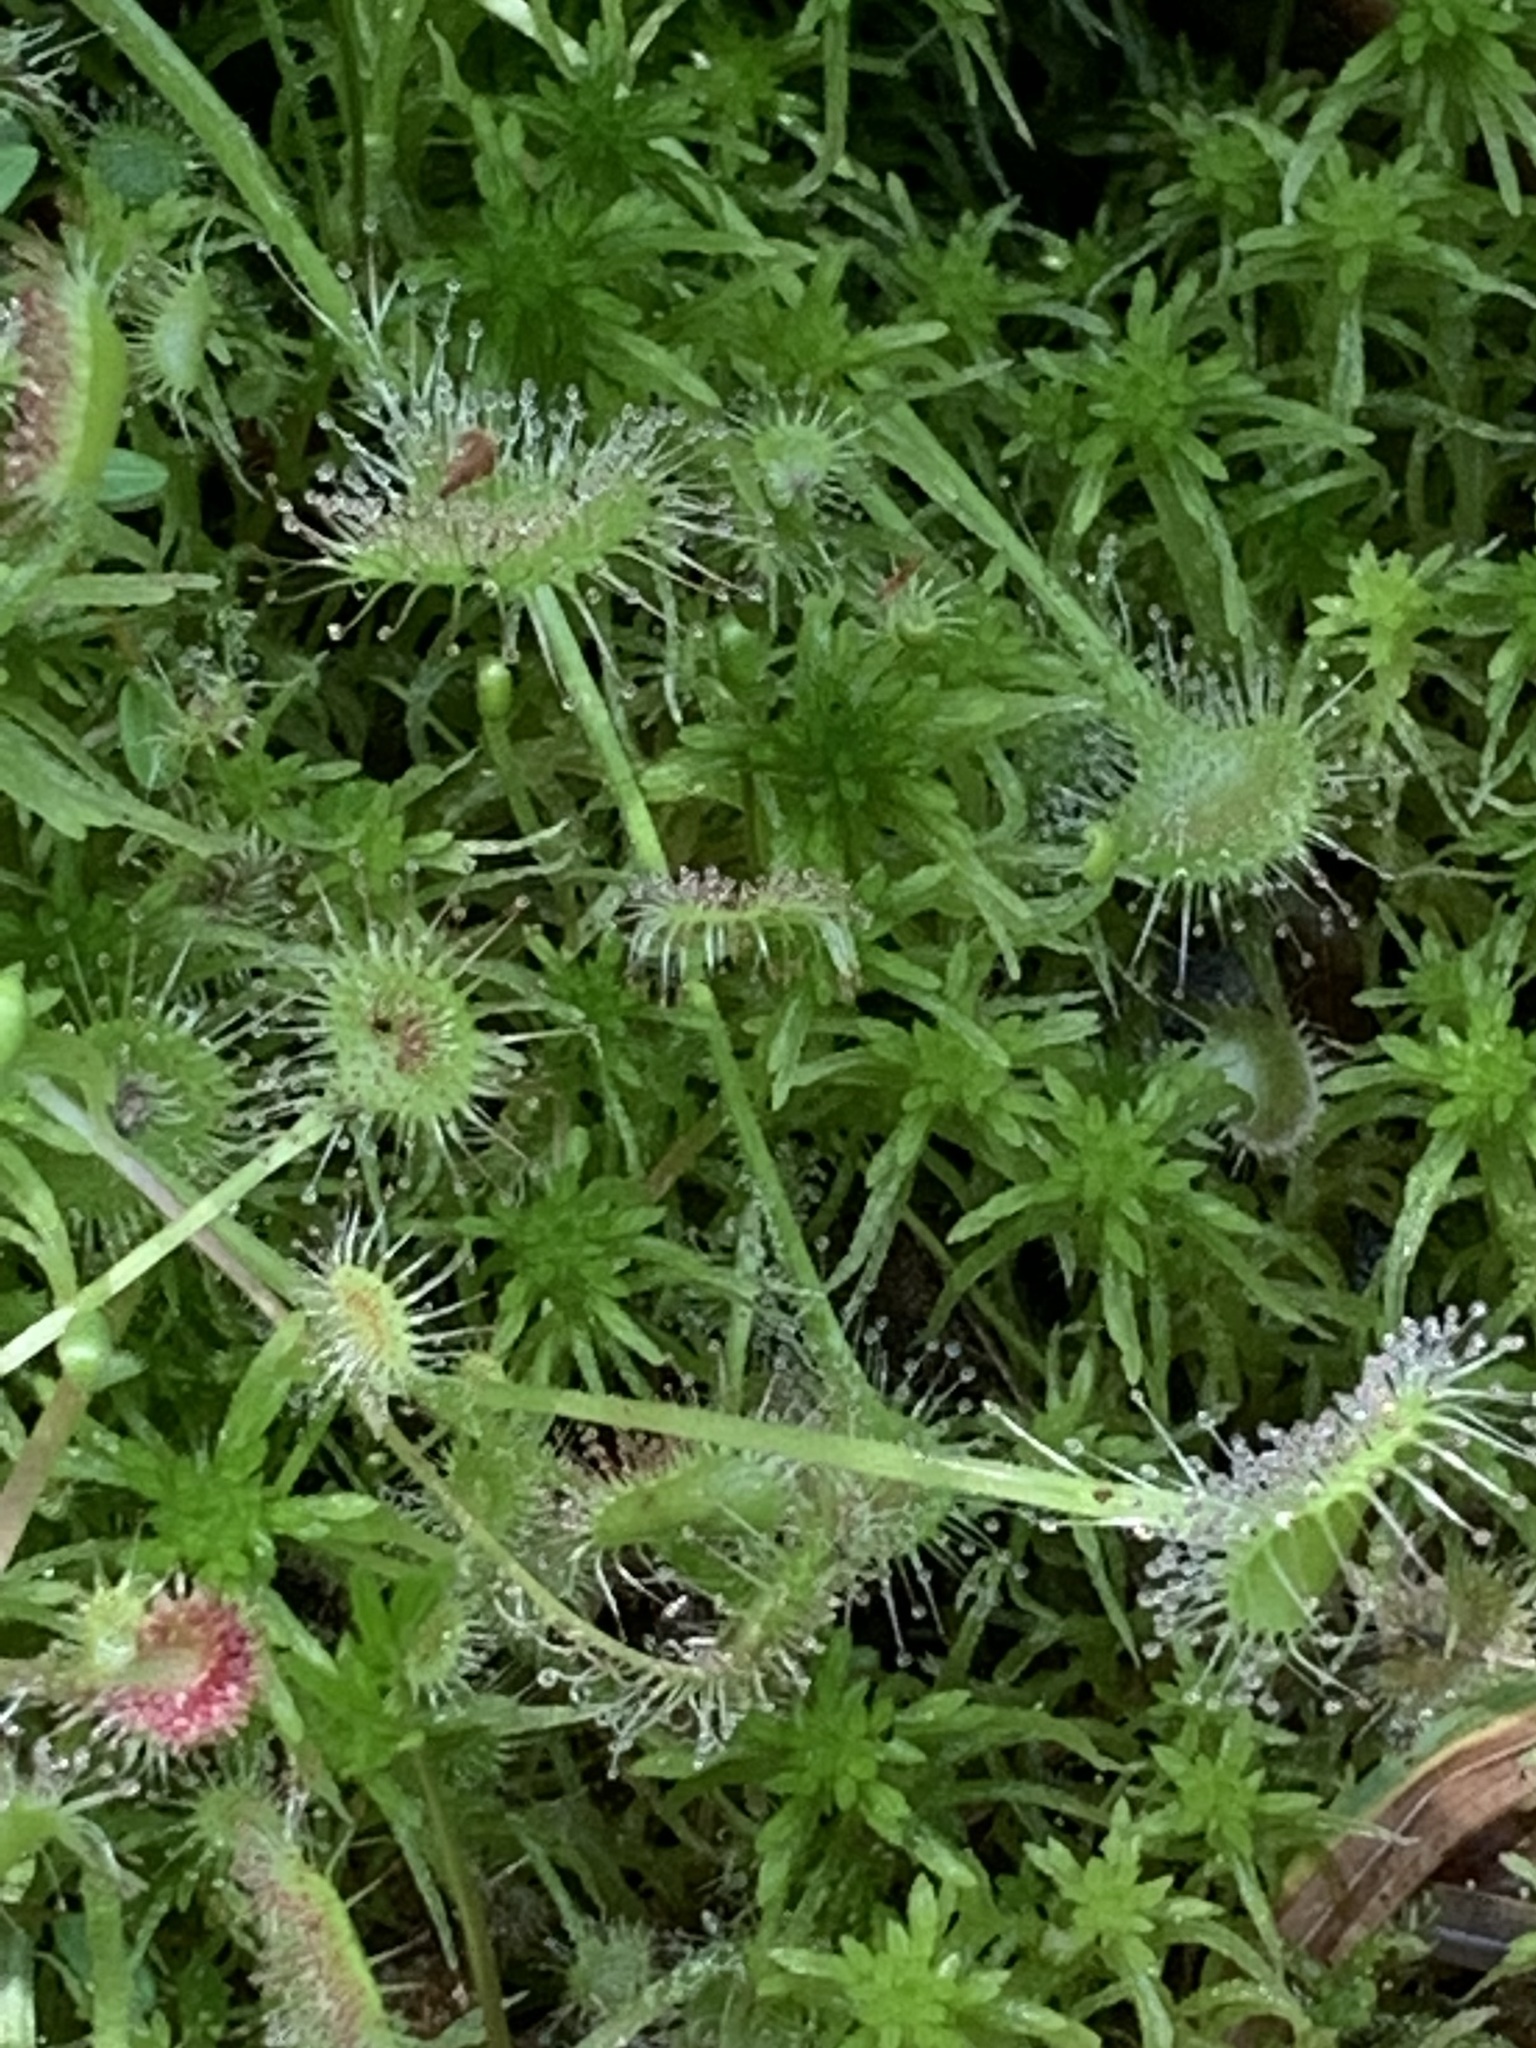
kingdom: Plantae
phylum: Tracheophyta
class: Magnoliopsida
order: Caryophyllales
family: Droseraceae
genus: Drosera
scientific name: Drosera rotundifolia
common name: Round-leaved sundew
